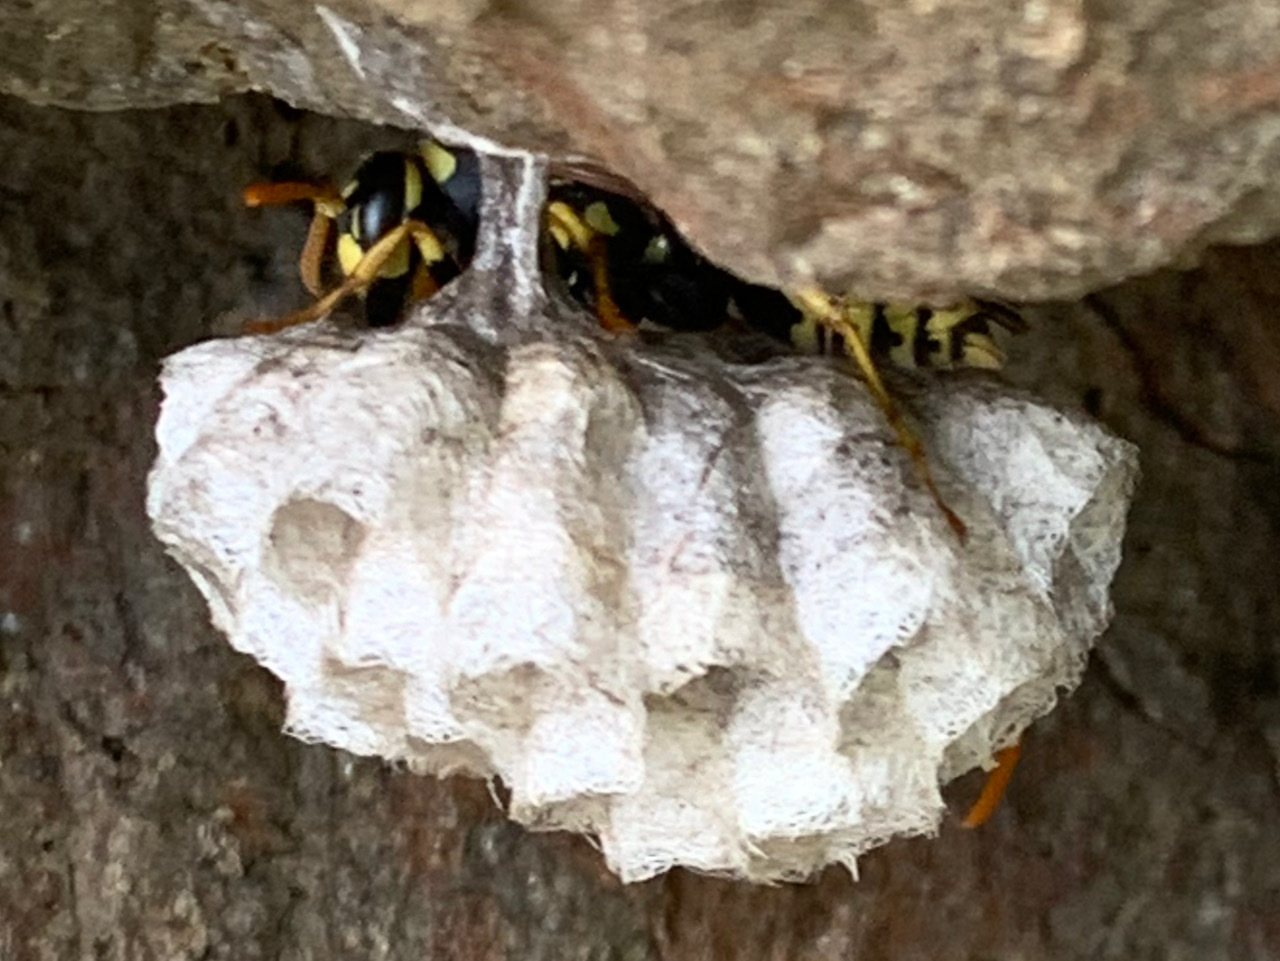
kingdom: Animalia
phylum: Arthropoda
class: Insecta
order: Hymenoptera
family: Eumenidae
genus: Polistes
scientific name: Polistes dominula
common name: Paper wasp
